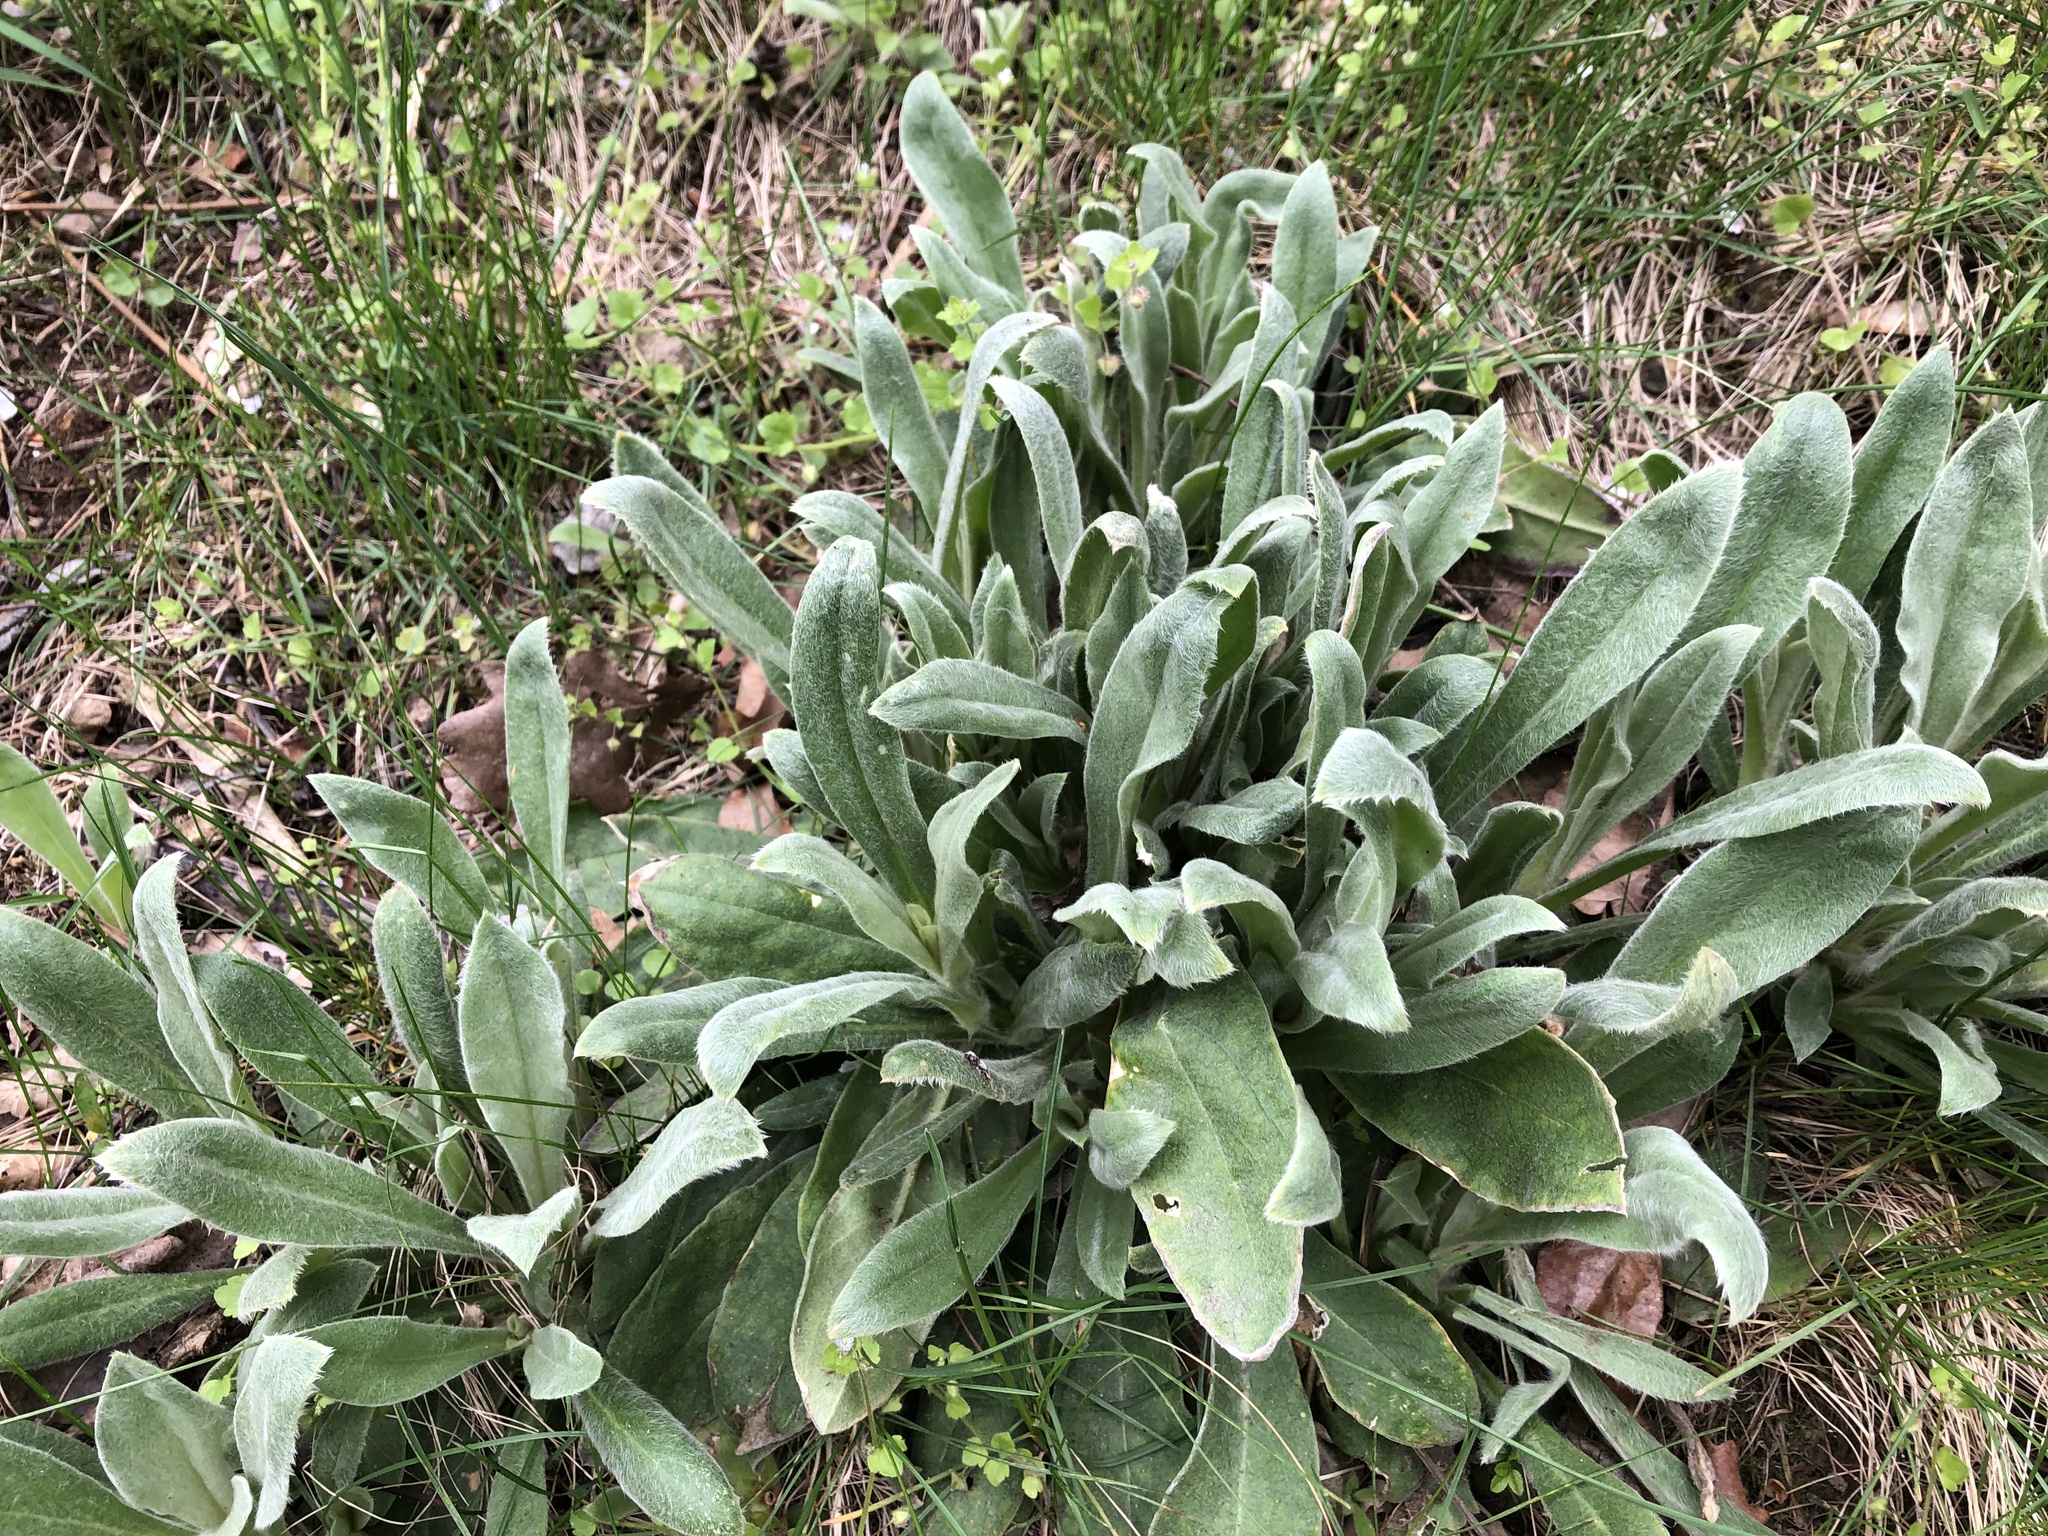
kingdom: Plantae
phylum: Tracheophyta
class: Magnoliopsida
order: Caryophyllales
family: Caryophyllaceae
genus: Silene
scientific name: Silene coronaria
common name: Rose campion
